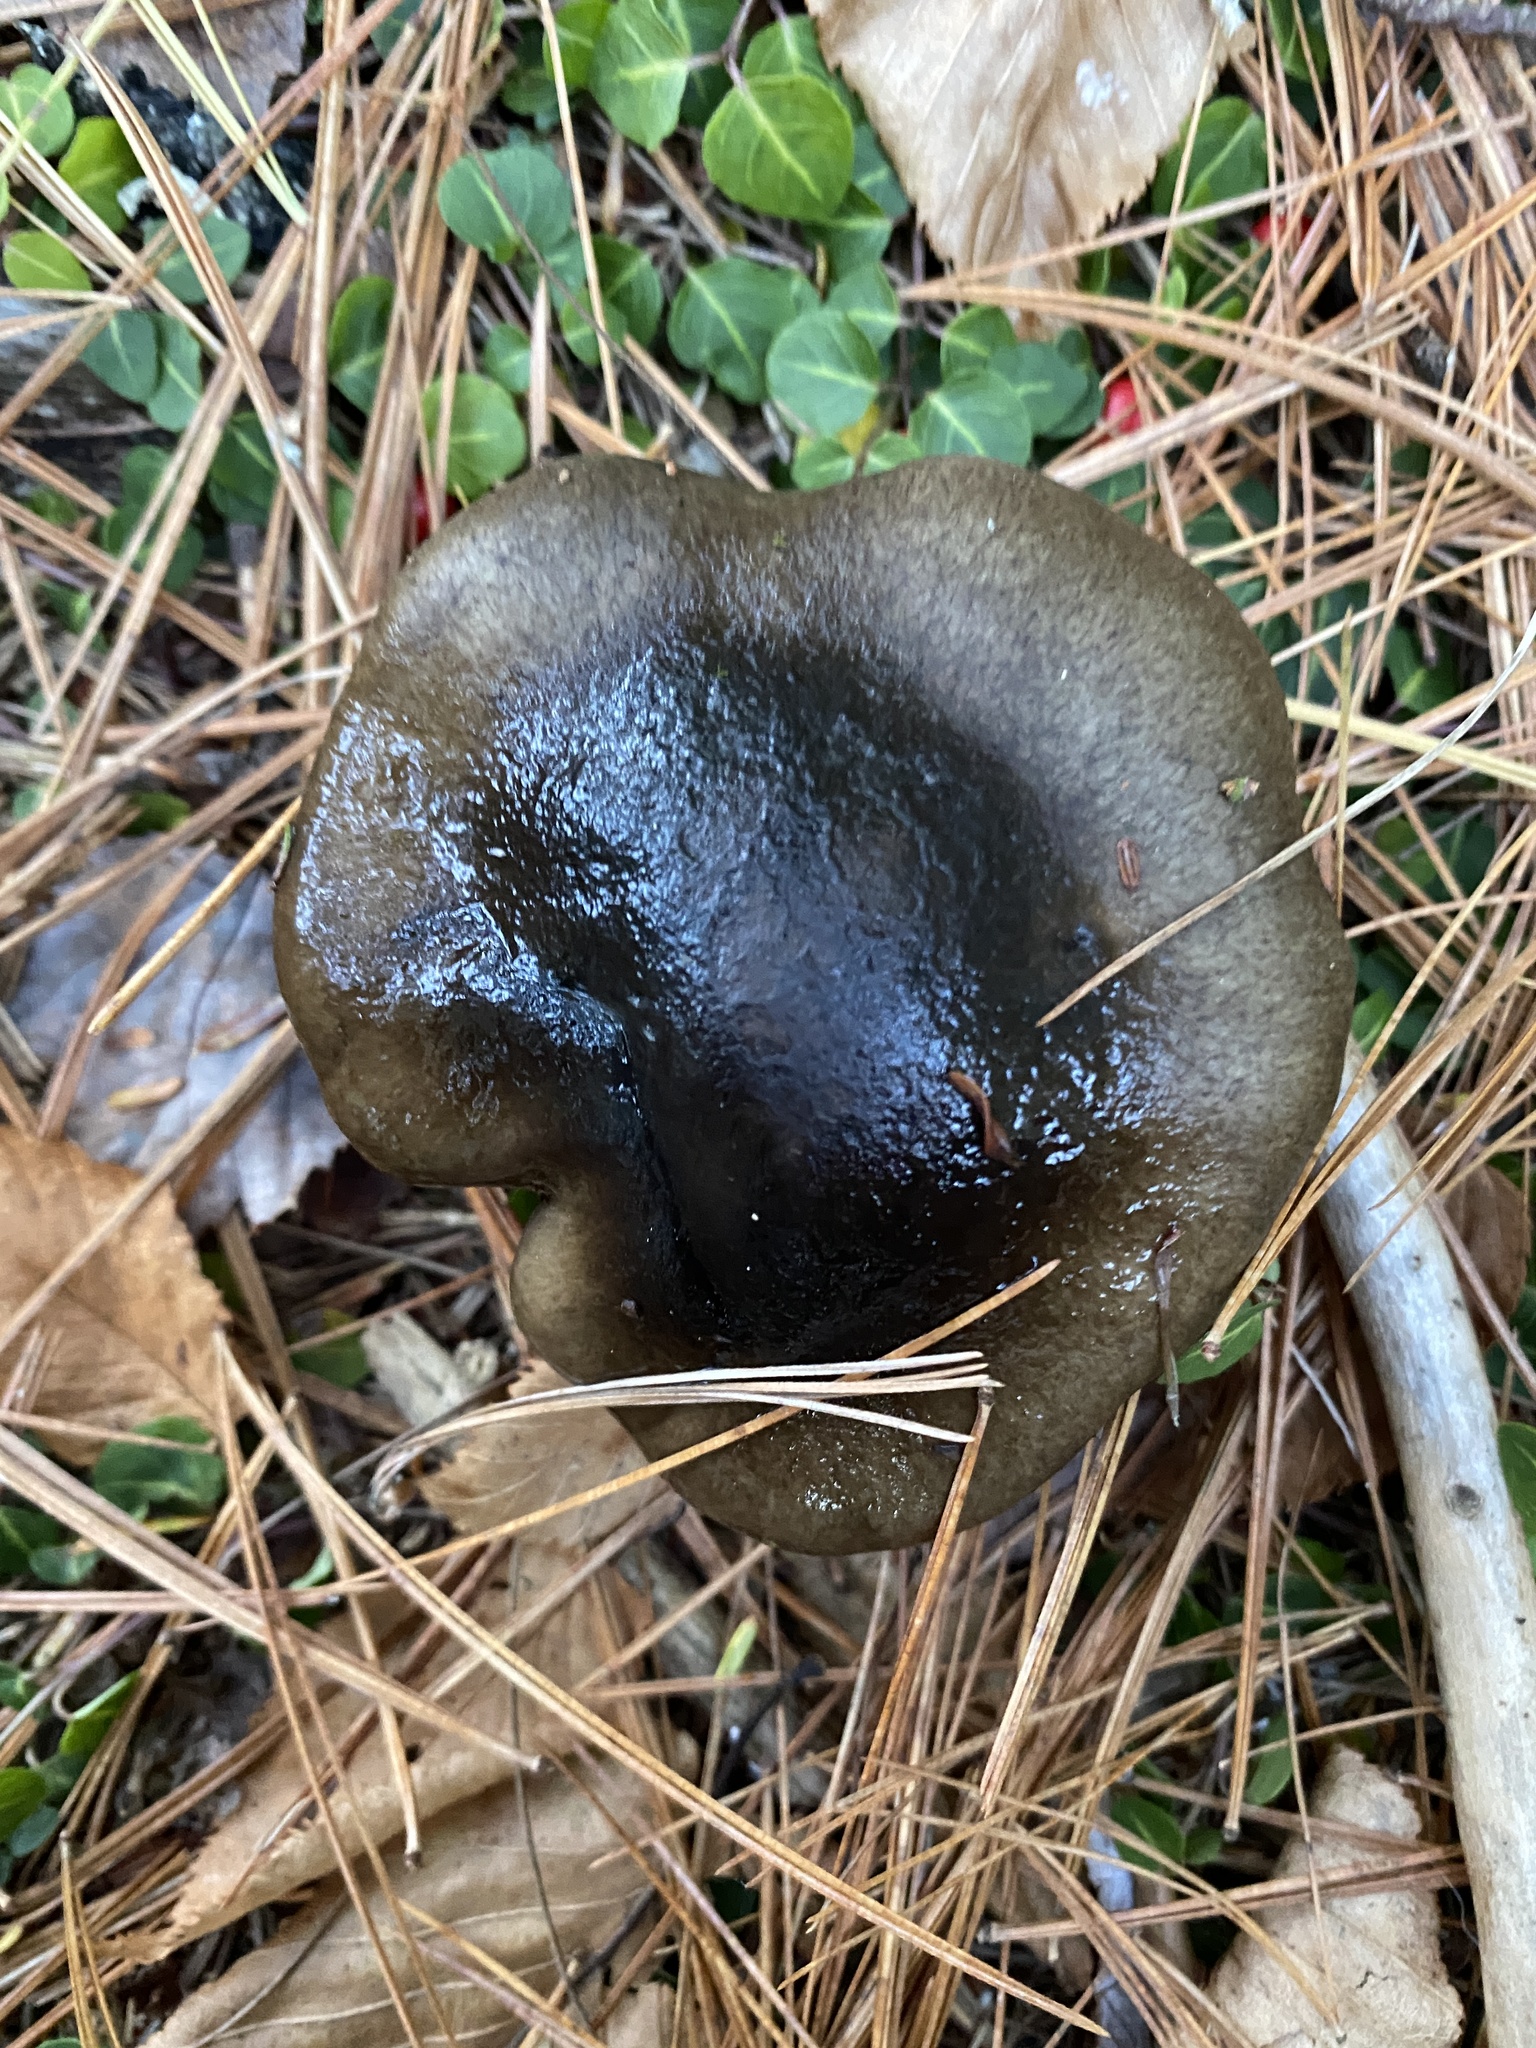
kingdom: Fungi
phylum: Basidiomycota
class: Agaricomycetes
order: Agaricales
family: Hygrophoraceae
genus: Hygrophorus
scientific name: Hygrophorus hypothejus
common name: Herald of winter
